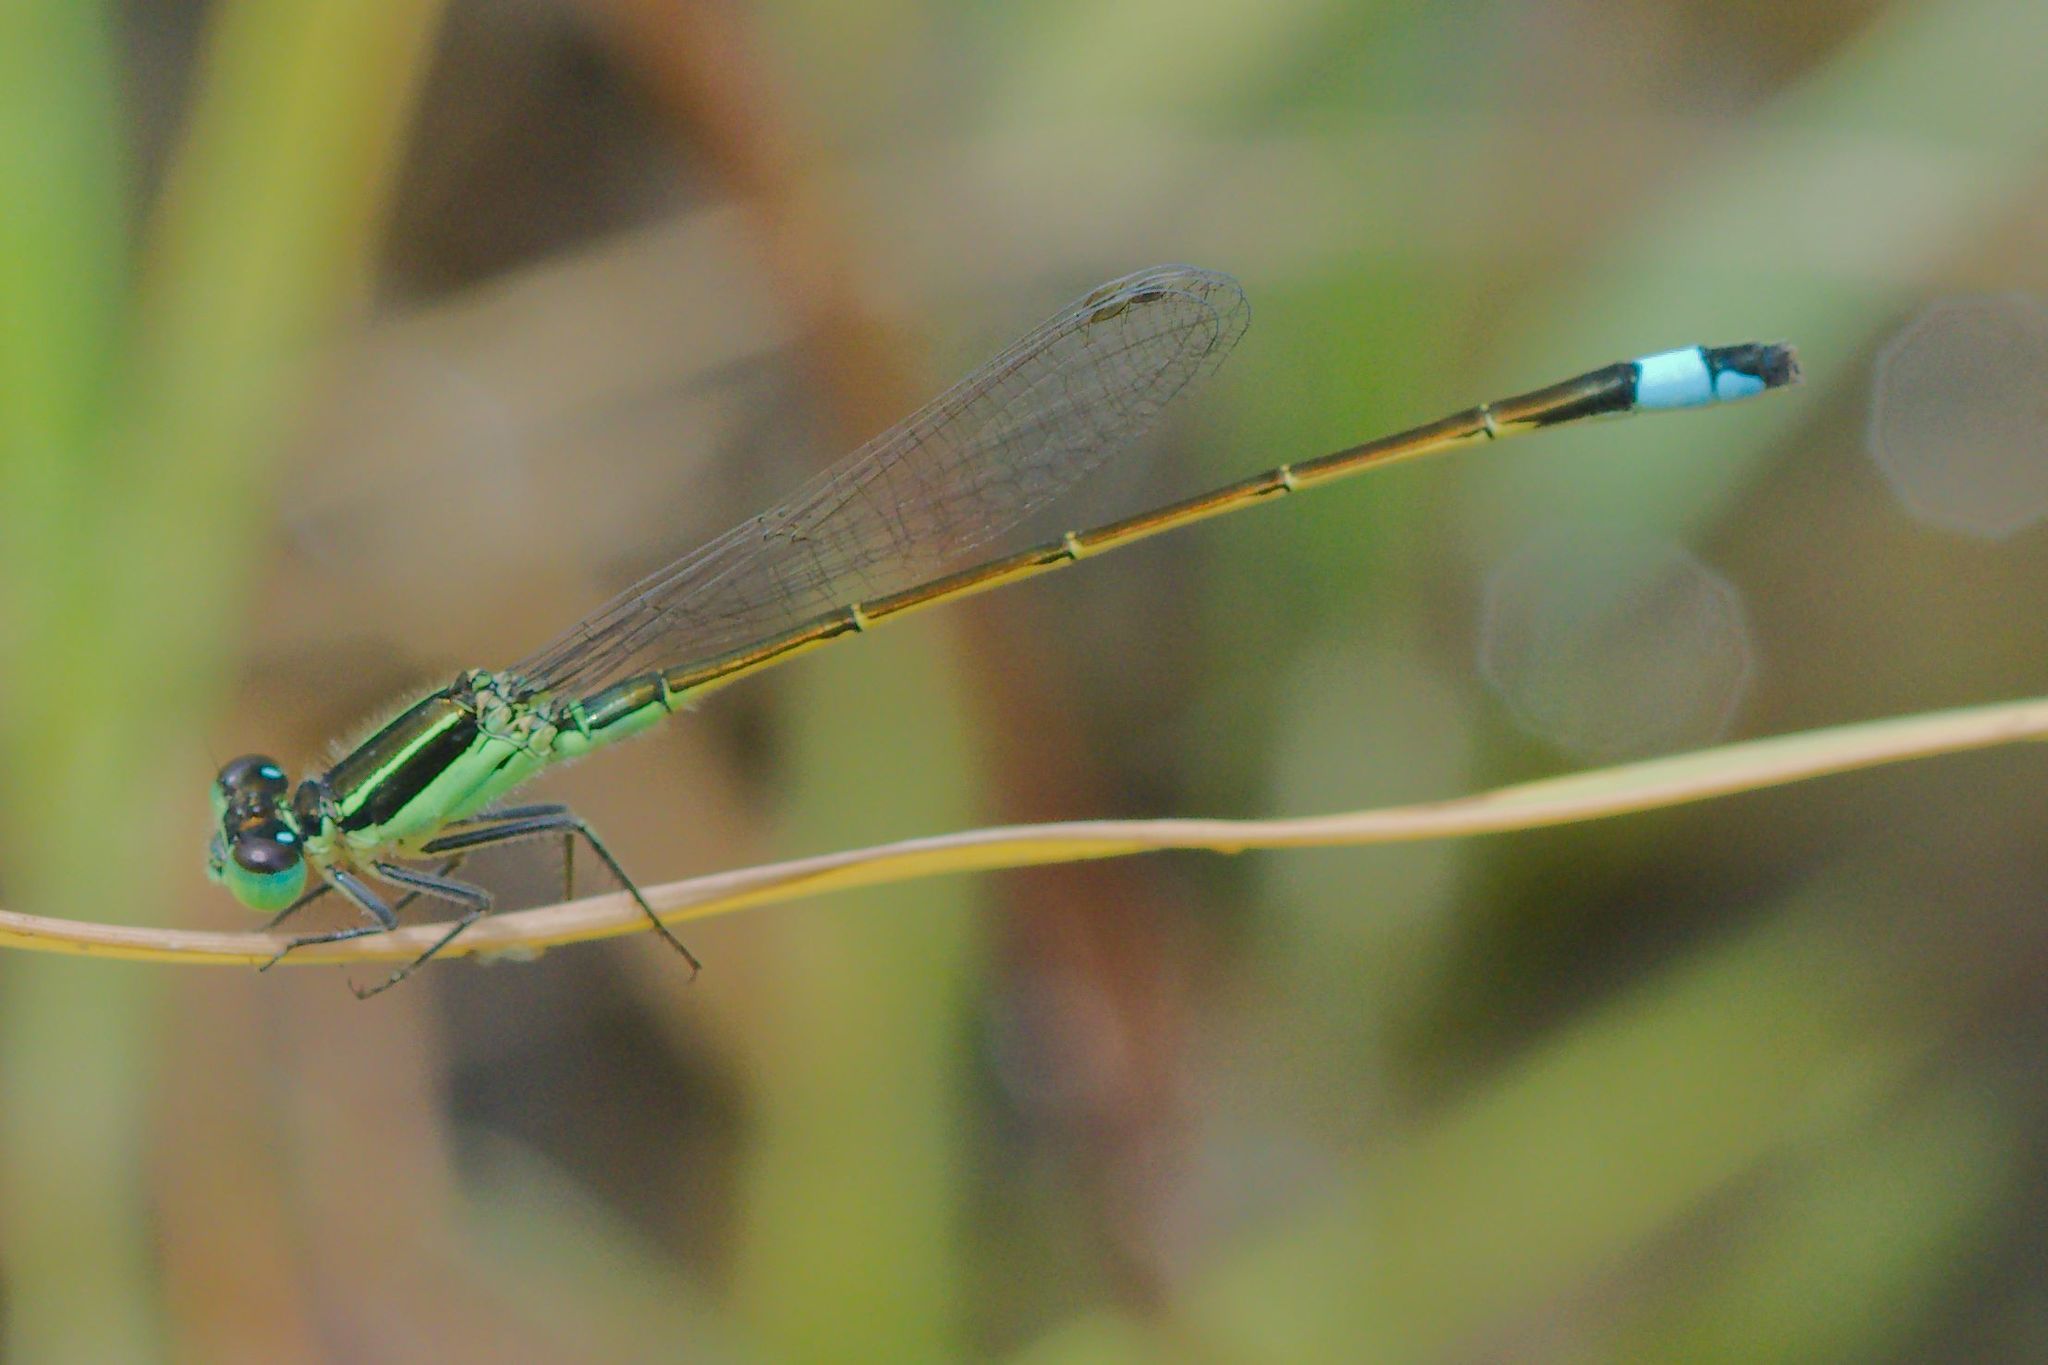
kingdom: Animalia
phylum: Arthropoda
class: Insecta
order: Odonata
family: Coenagrionidae
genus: Ischnura
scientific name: Ischnura ramburii
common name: Rambur's forktail
